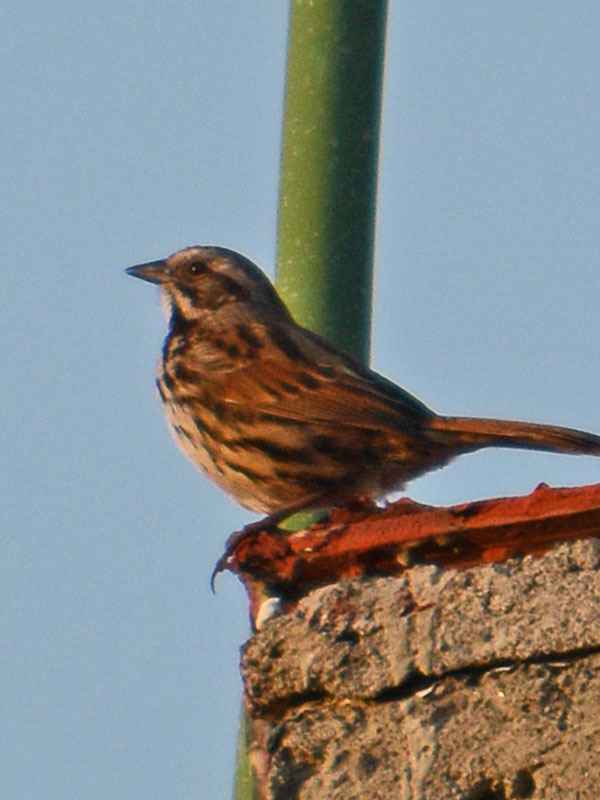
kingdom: Animalia
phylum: Chordata
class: Aves
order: Passeriformes
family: Passerellidae
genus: Melospiza
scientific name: Melospiza melodia
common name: Song sparrow
